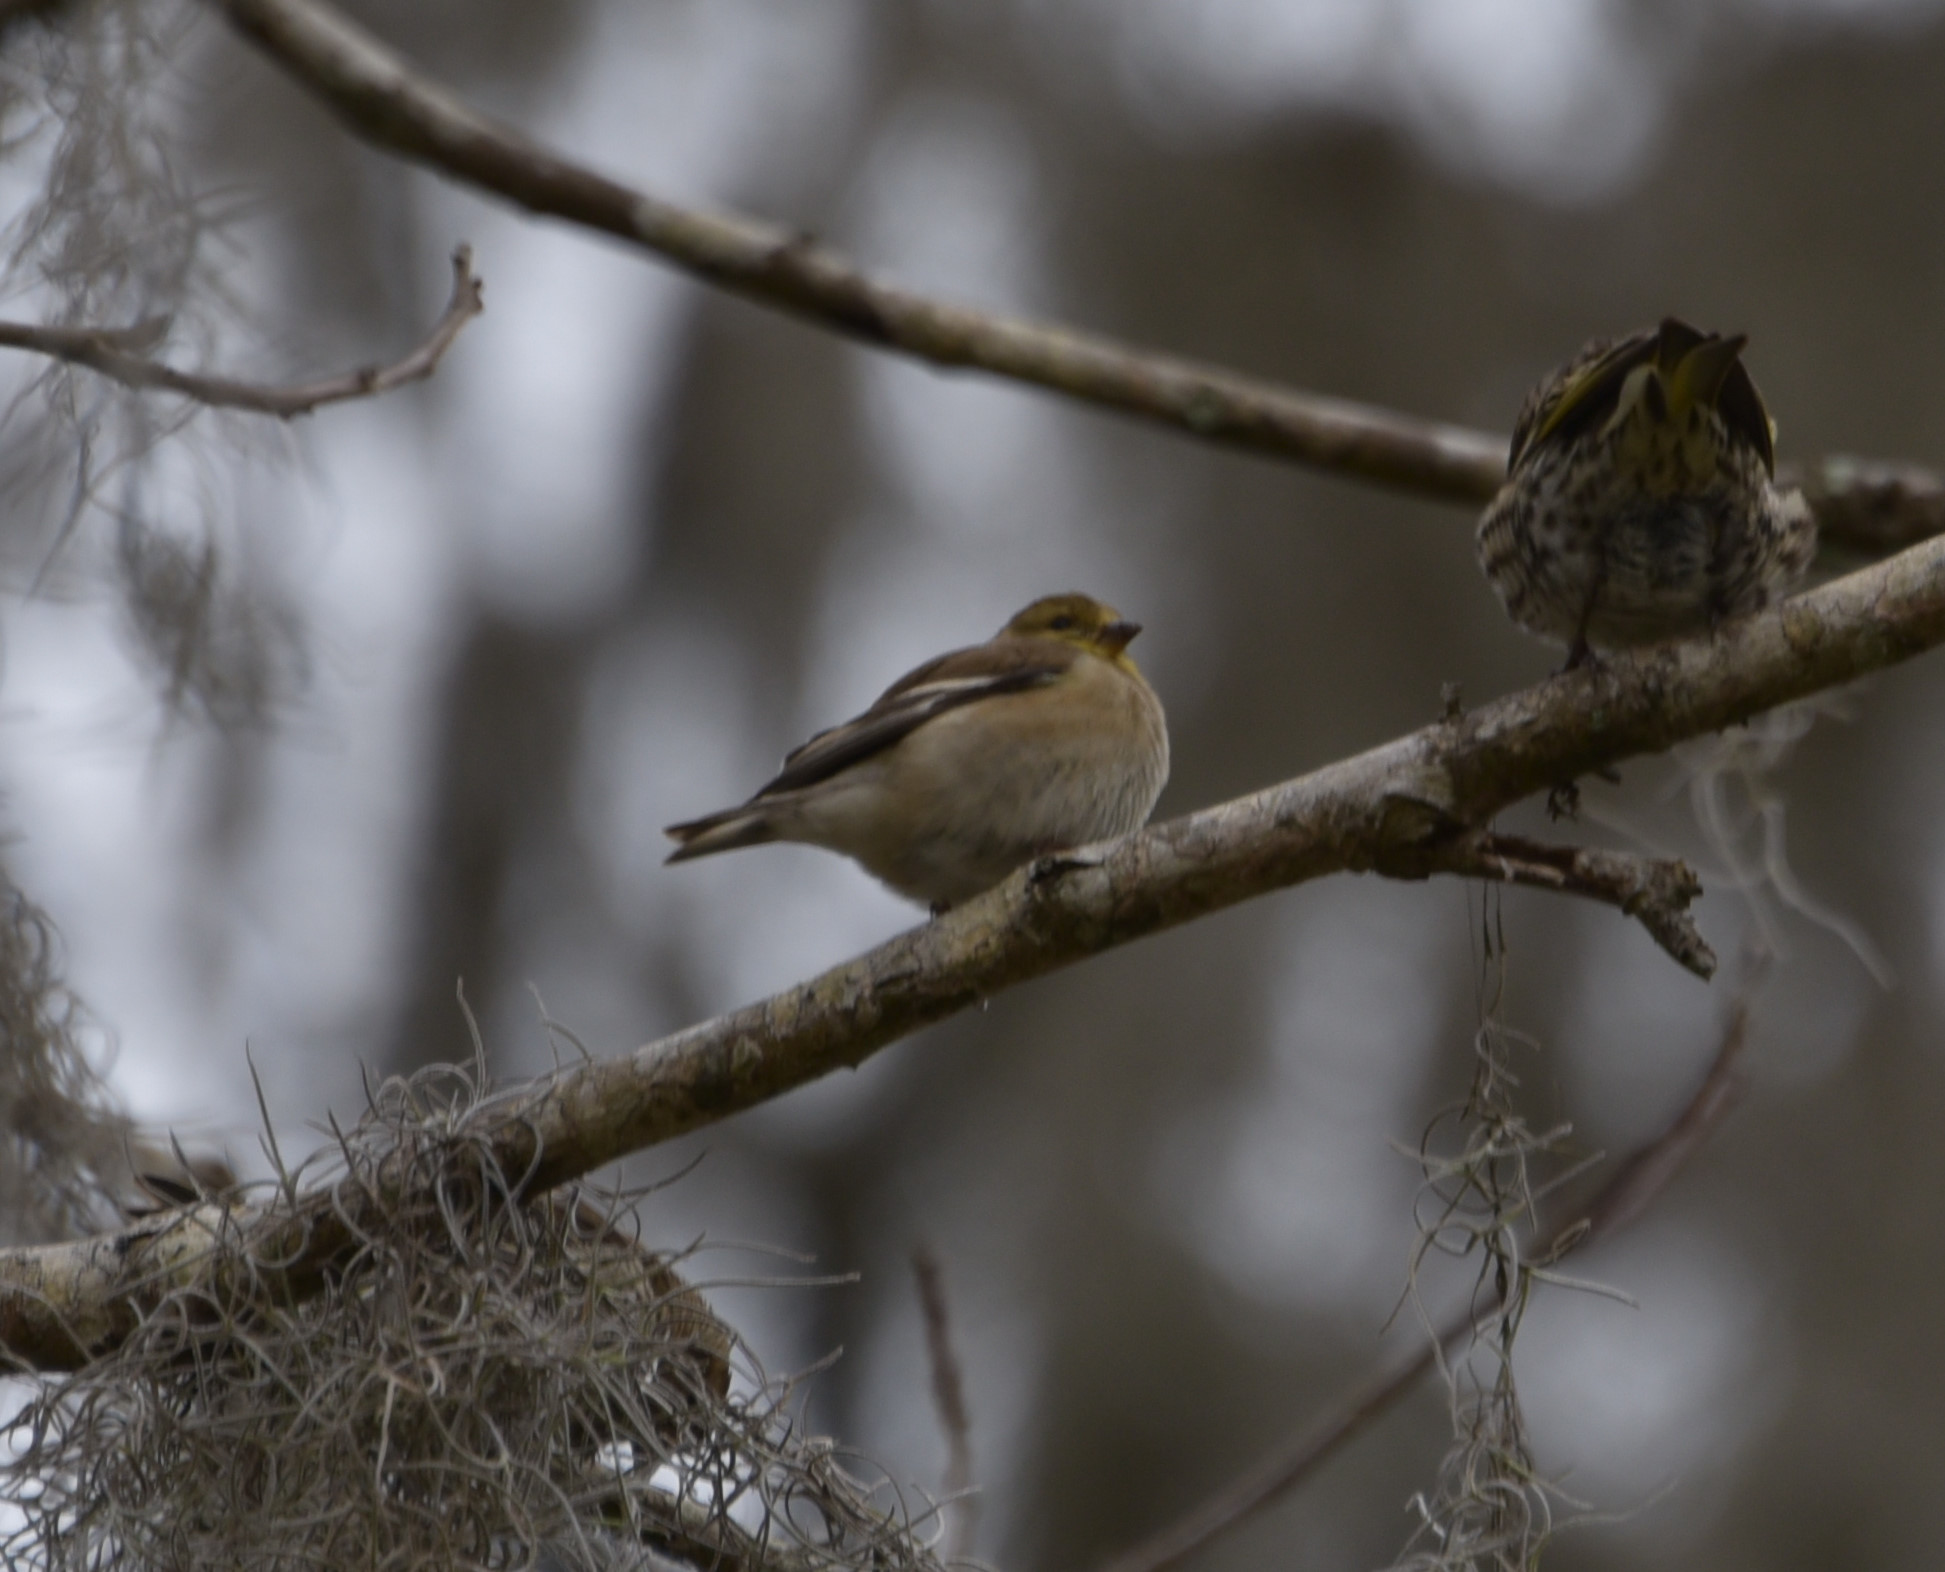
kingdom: Animalia
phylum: Chordata
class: Aves
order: Passeriformes
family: Fringillidae
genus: Spinus
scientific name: Spinus tristis
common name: American goldfinch
